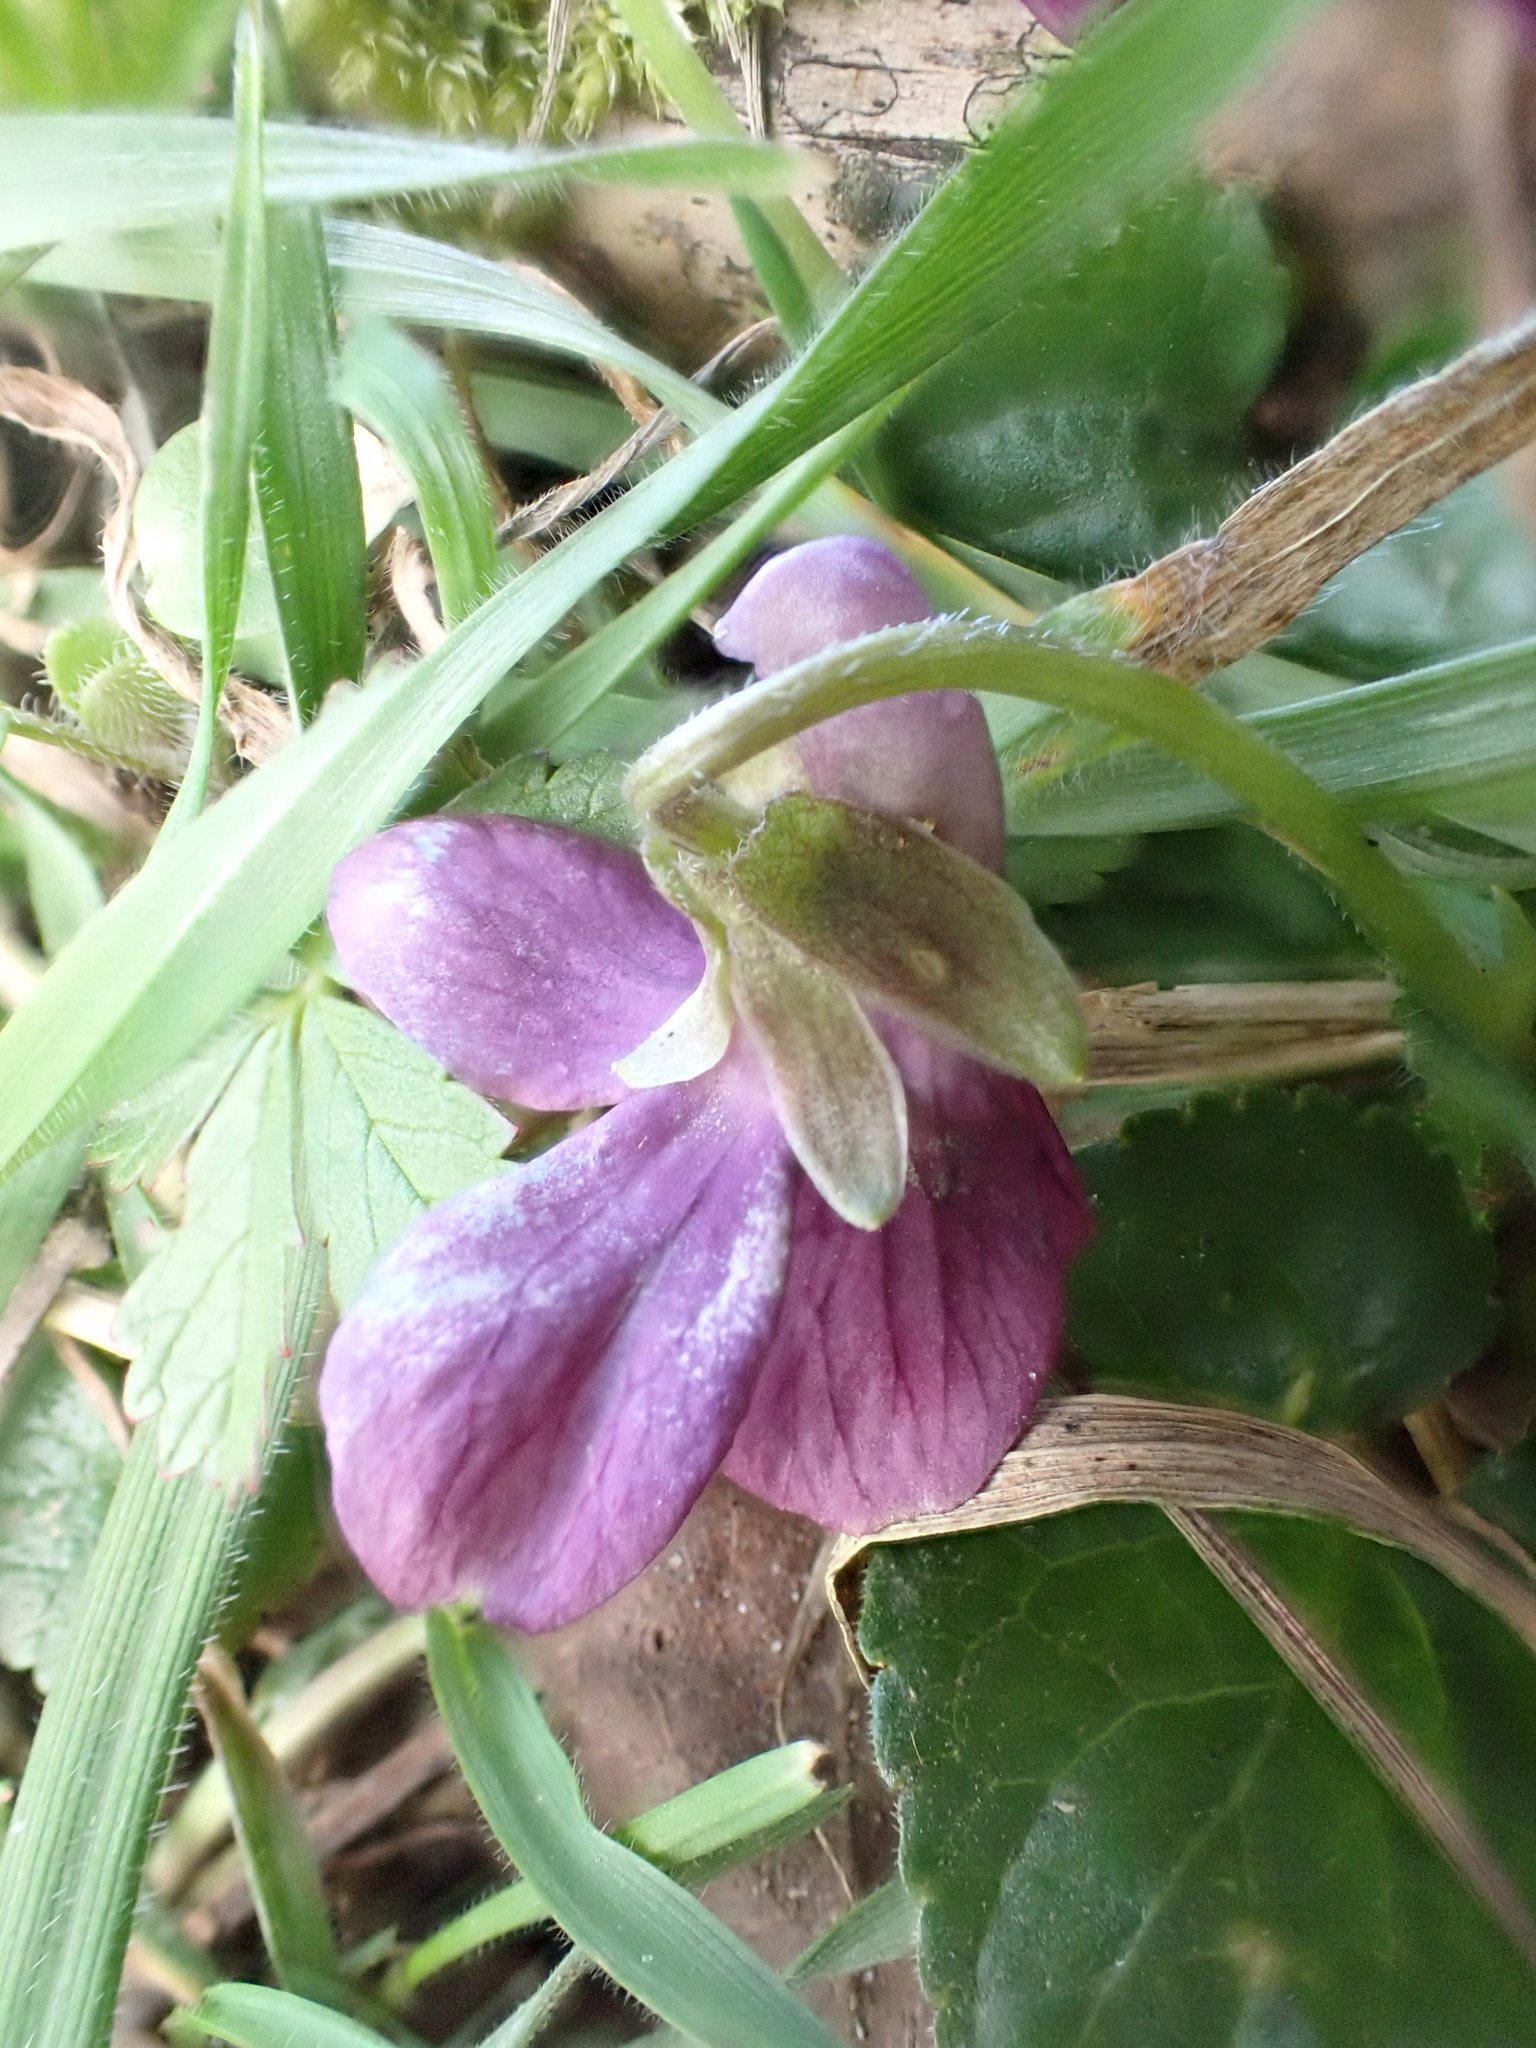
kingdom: Plantae
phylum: Tracheophyta
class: Magnoliopsida
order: Malpighiales
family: Violaceae
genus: Viola
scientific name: Viola odorata
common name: Sweet violet
